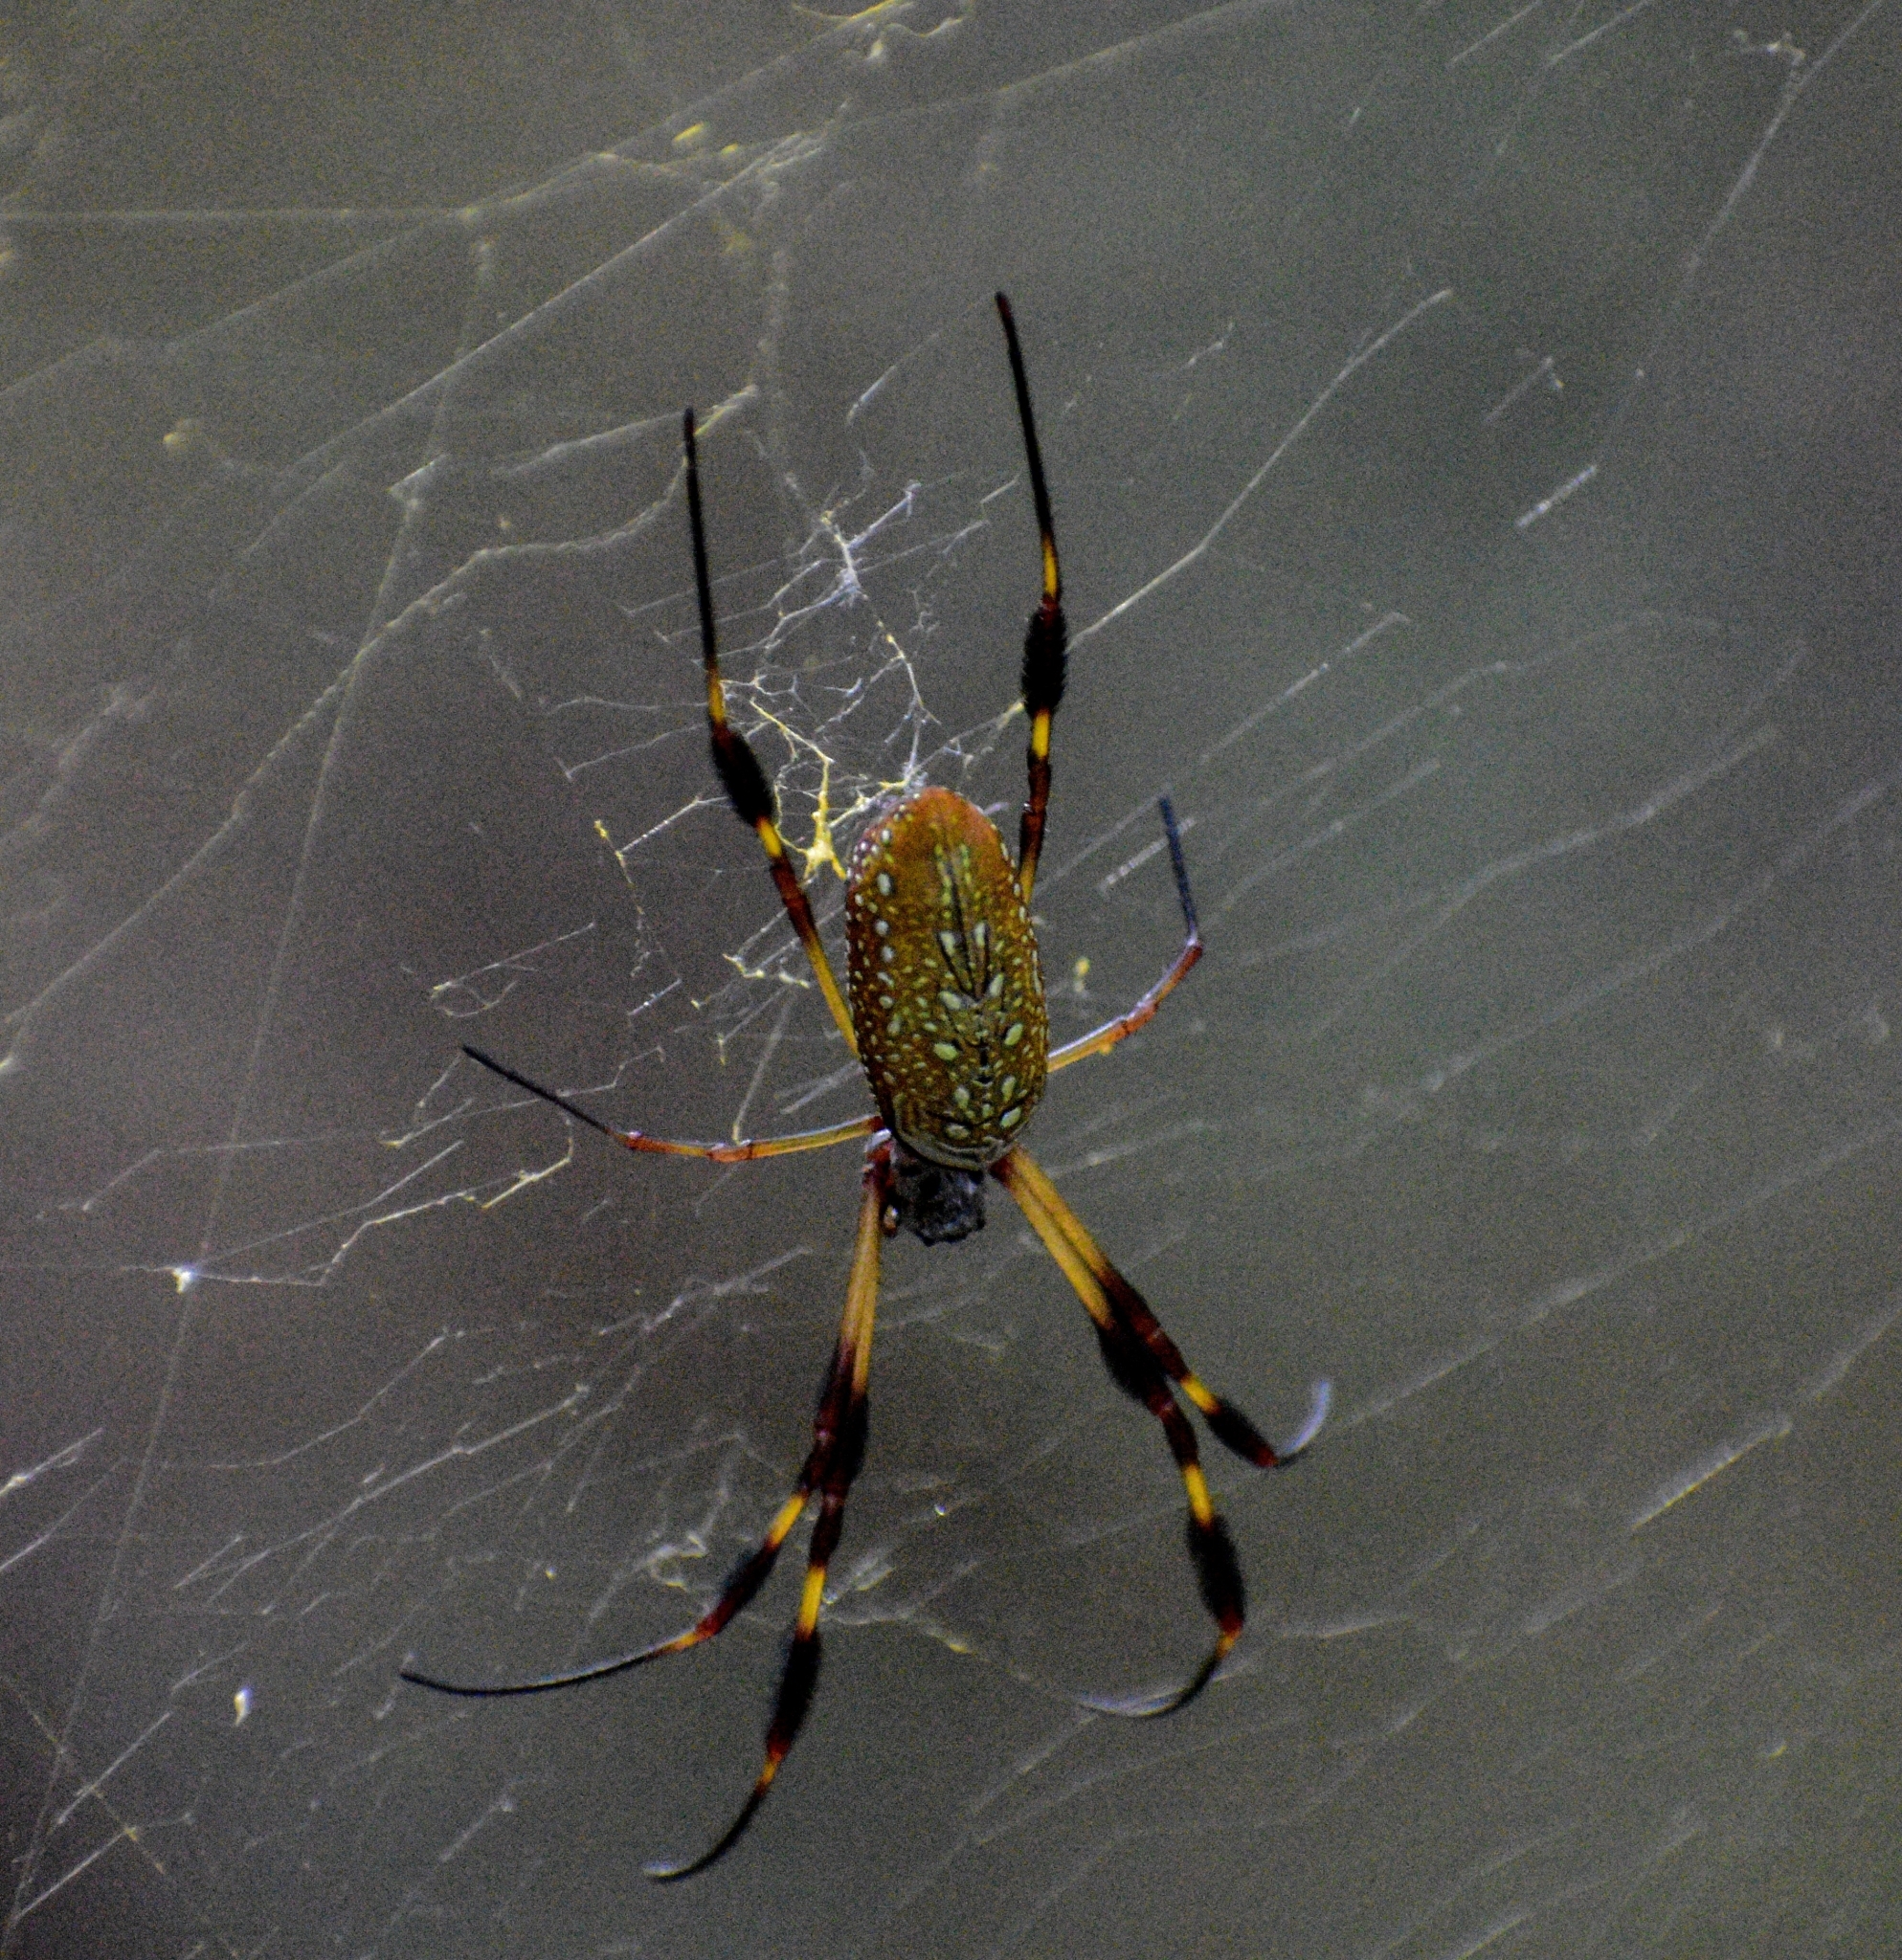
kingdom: Animalia
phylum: Arthropoda
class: Arachnida
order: Araneae
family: Araneidae
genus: Trichonephila
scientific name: Trichonephila clavipes
